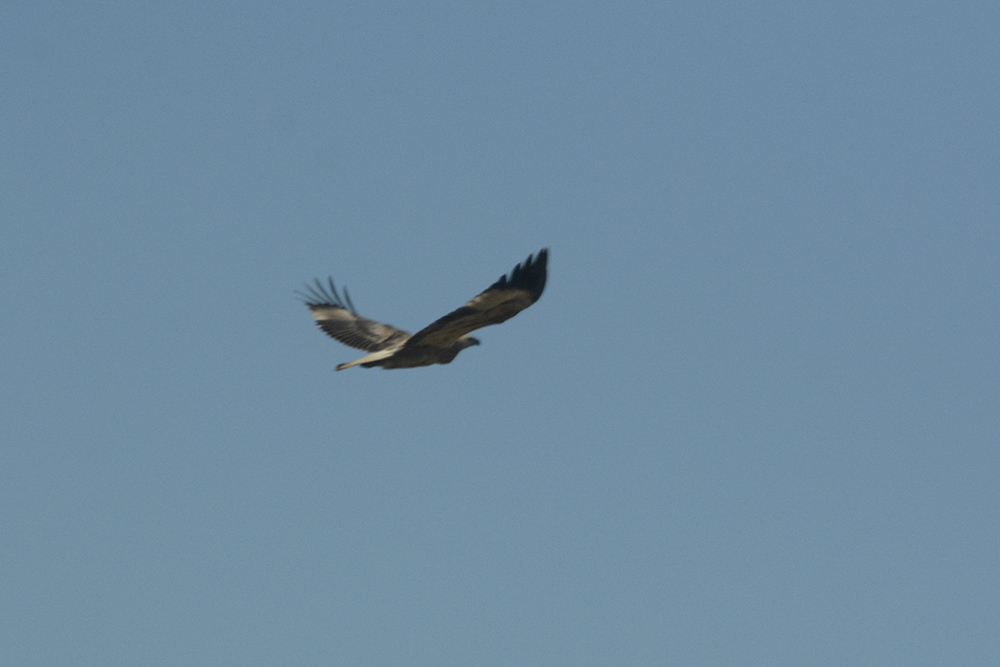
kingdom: Animalia
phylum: Chordata
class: Aves
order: Accipitriformes
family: Accipitridae
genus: Haliaeetus
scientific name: Haliaeetus leucogaster
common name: White-bellied sea eagle
